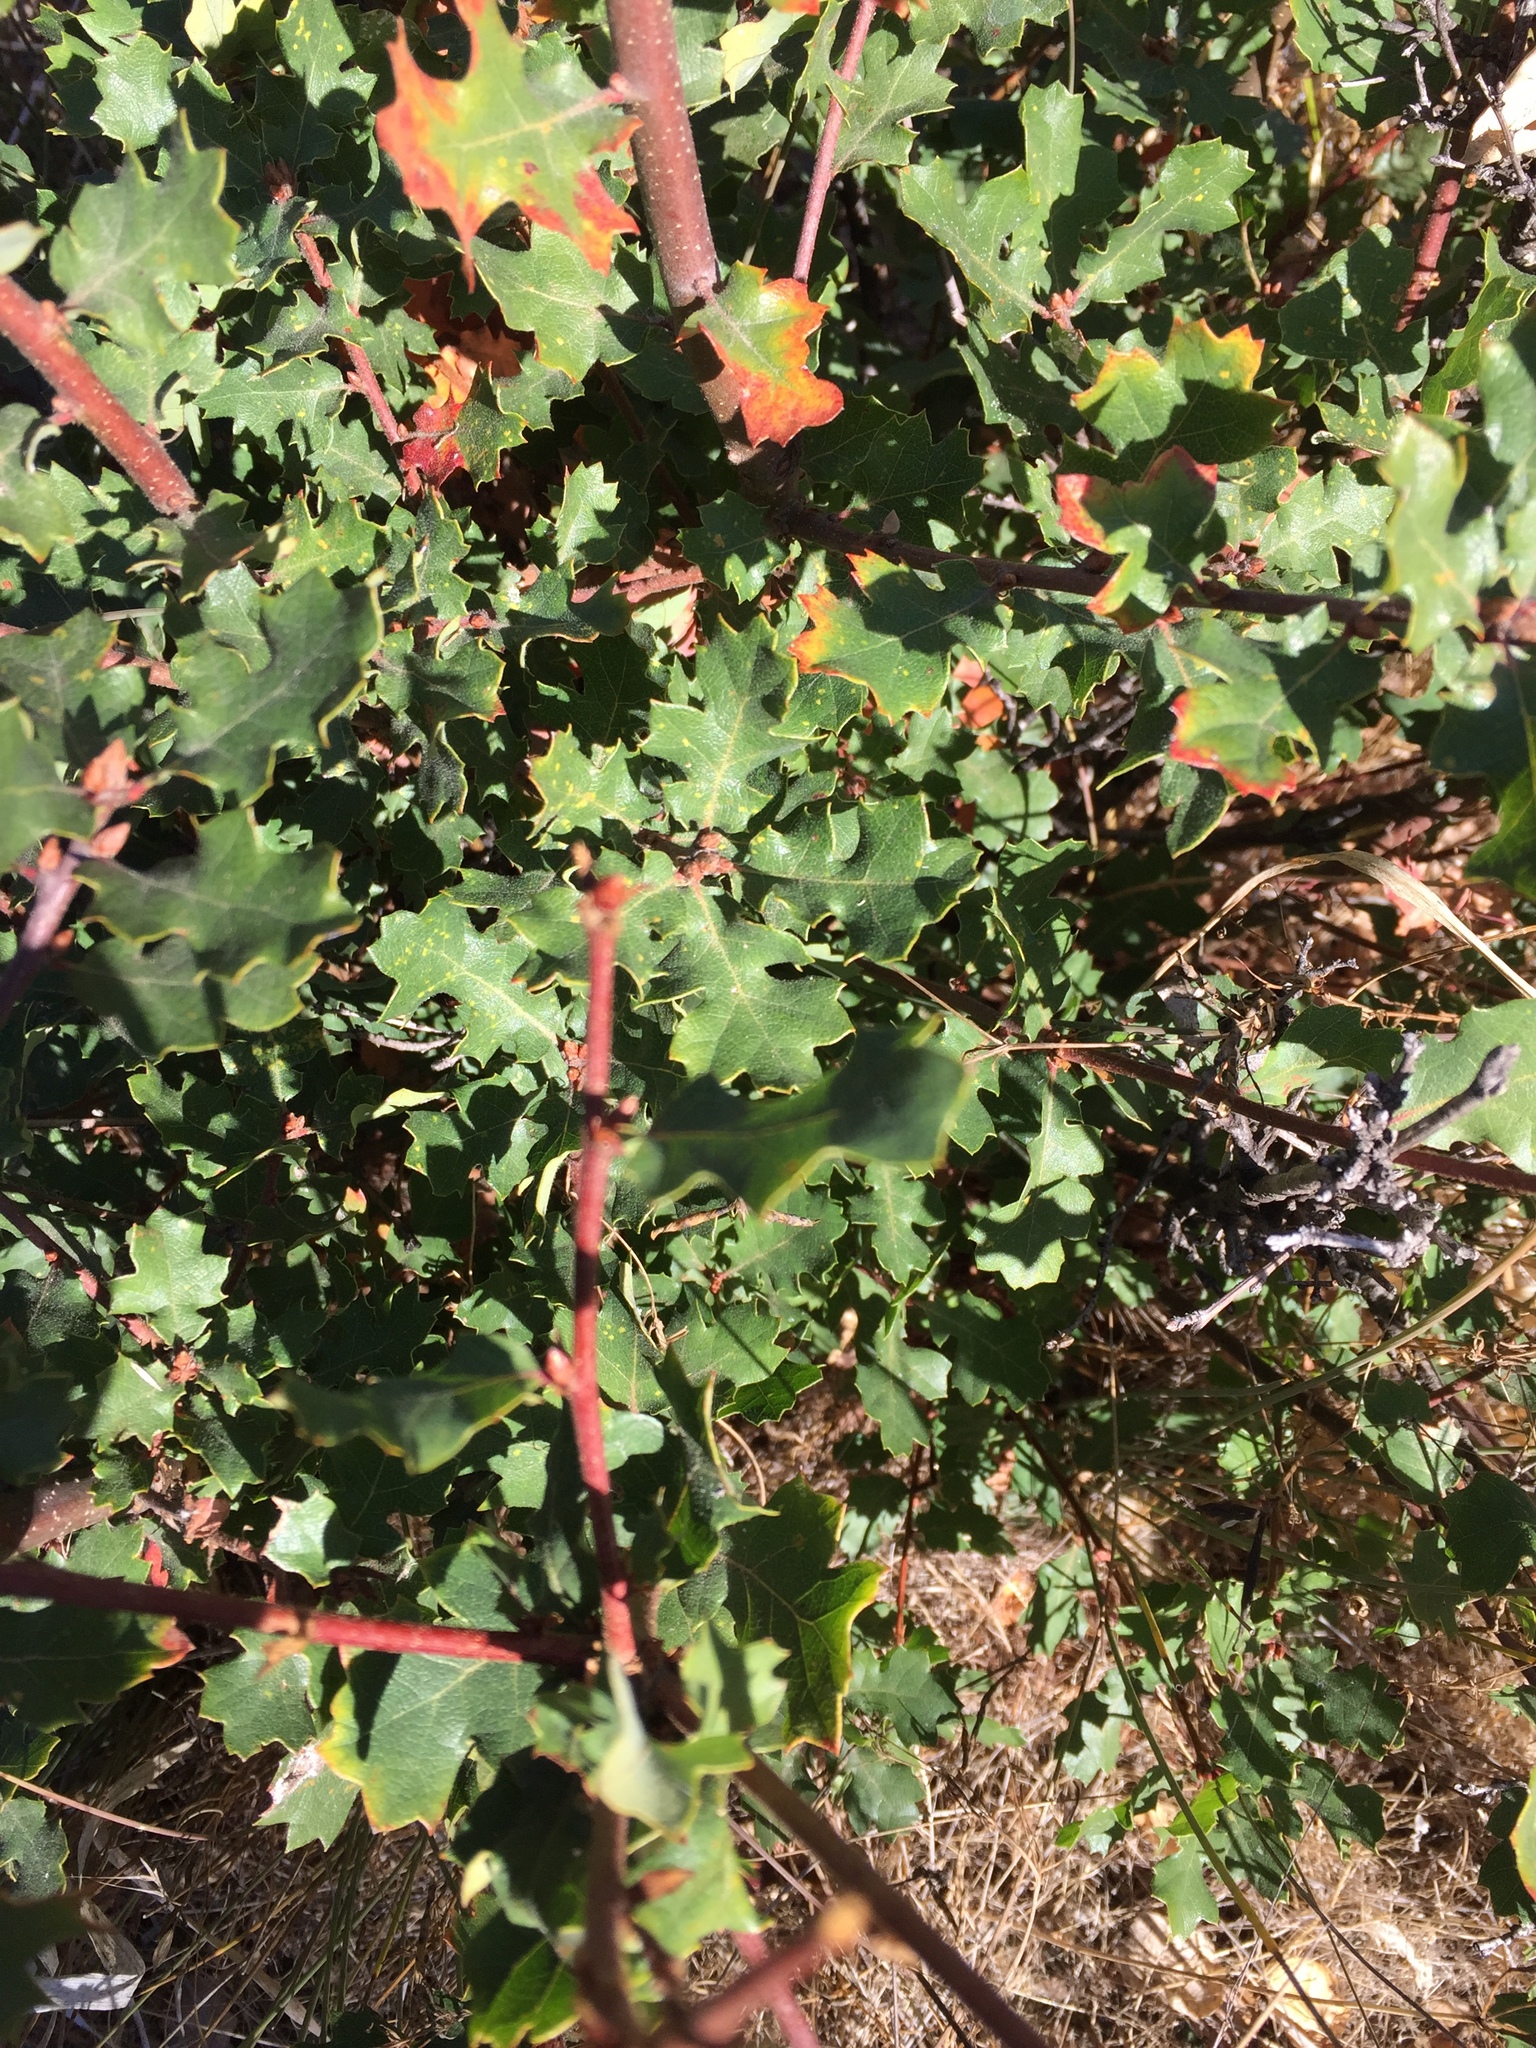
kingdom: Plantae
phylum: Tracheophyta
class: Magnoliopsida
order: Fagales
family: Fagaceae
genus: Quercus
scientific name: Quercus berberidifolia
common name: California scrub oak
